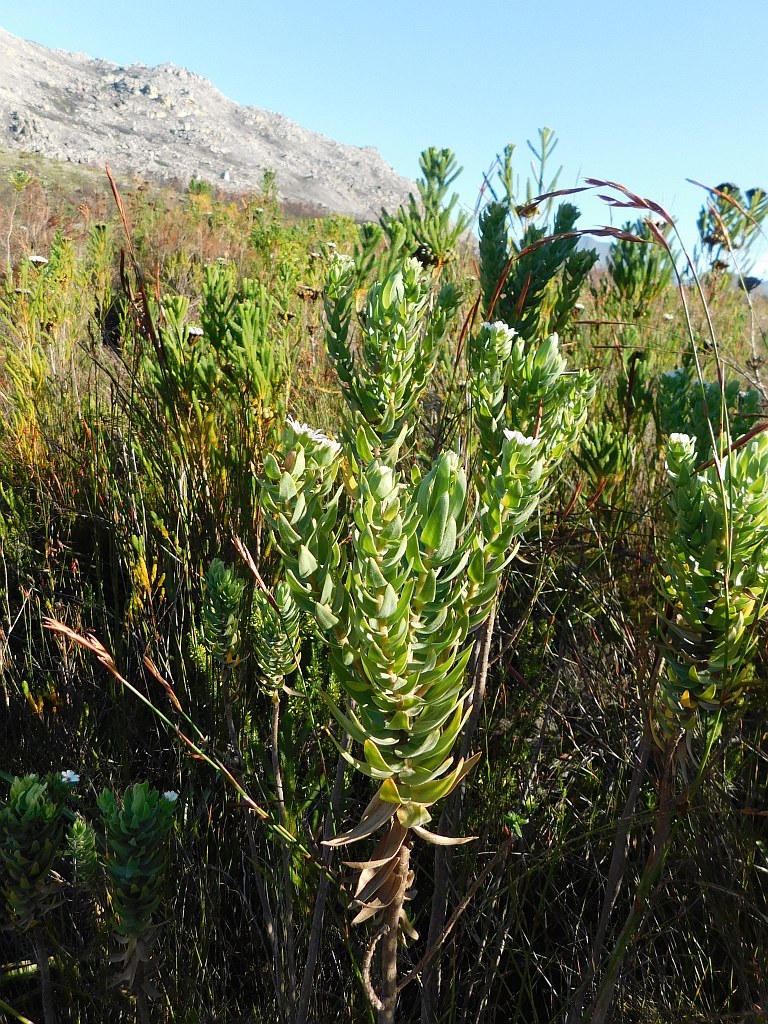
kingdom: Plantae
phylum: Tracheophyta
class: Magnoliopsida
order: Asterales
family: Asteraceae
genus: Osmitopsis
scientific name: Osmitopsis asteriscoides
